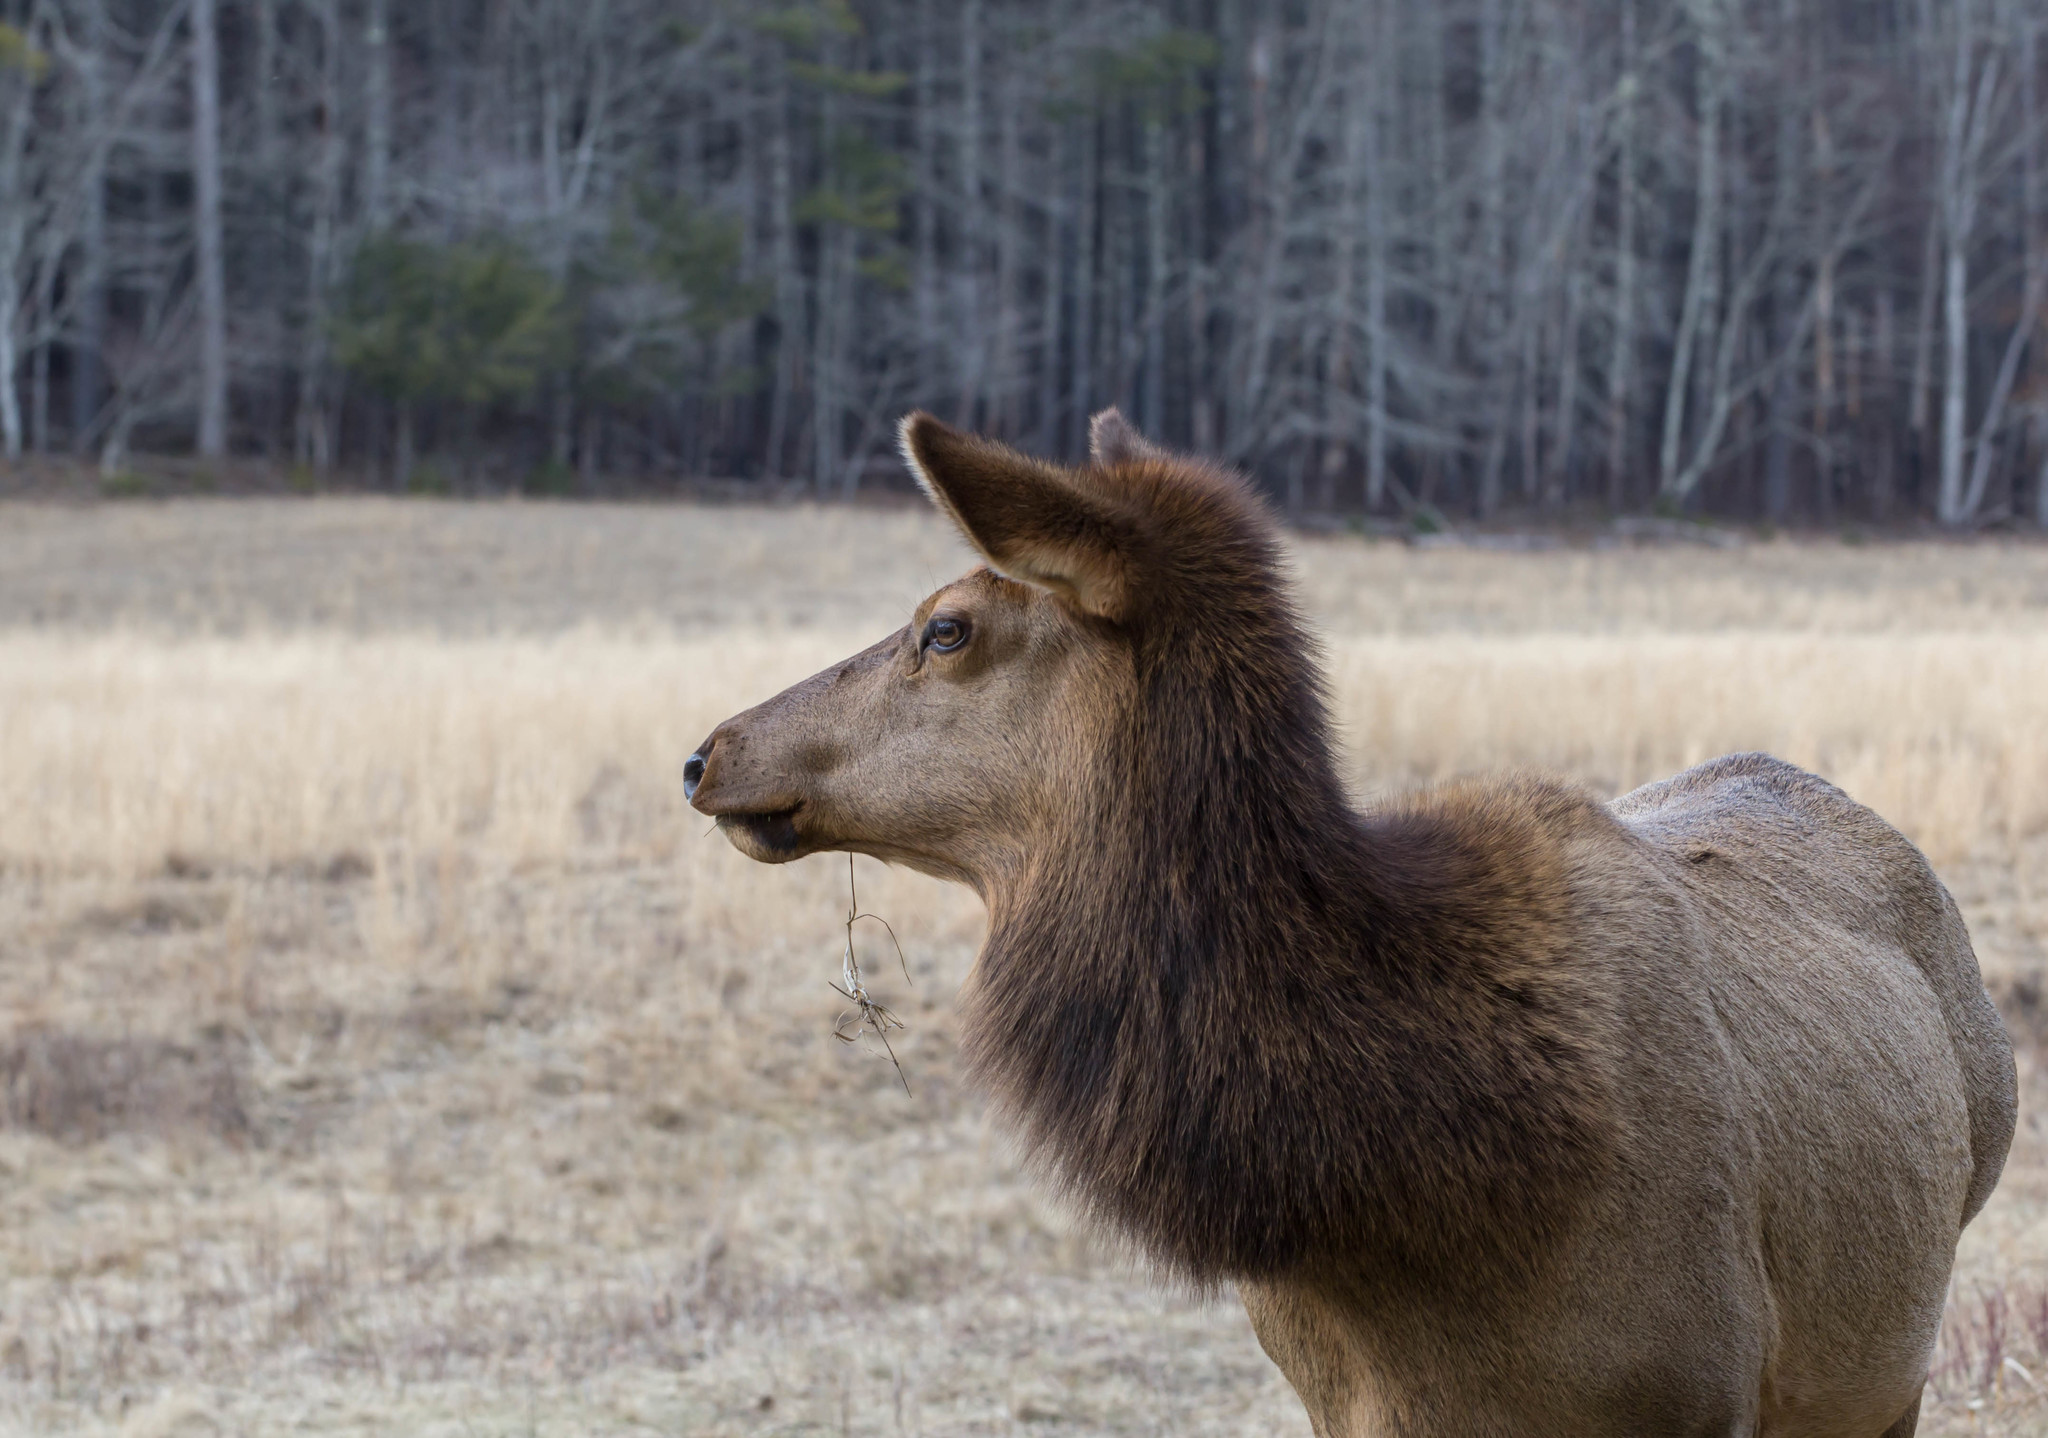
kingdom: Animalia
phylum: Chordata
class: Mammalia
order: Artiodactyla
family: Cervidae
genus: Cervus
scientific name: Cervus elaphus
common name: Red deer
